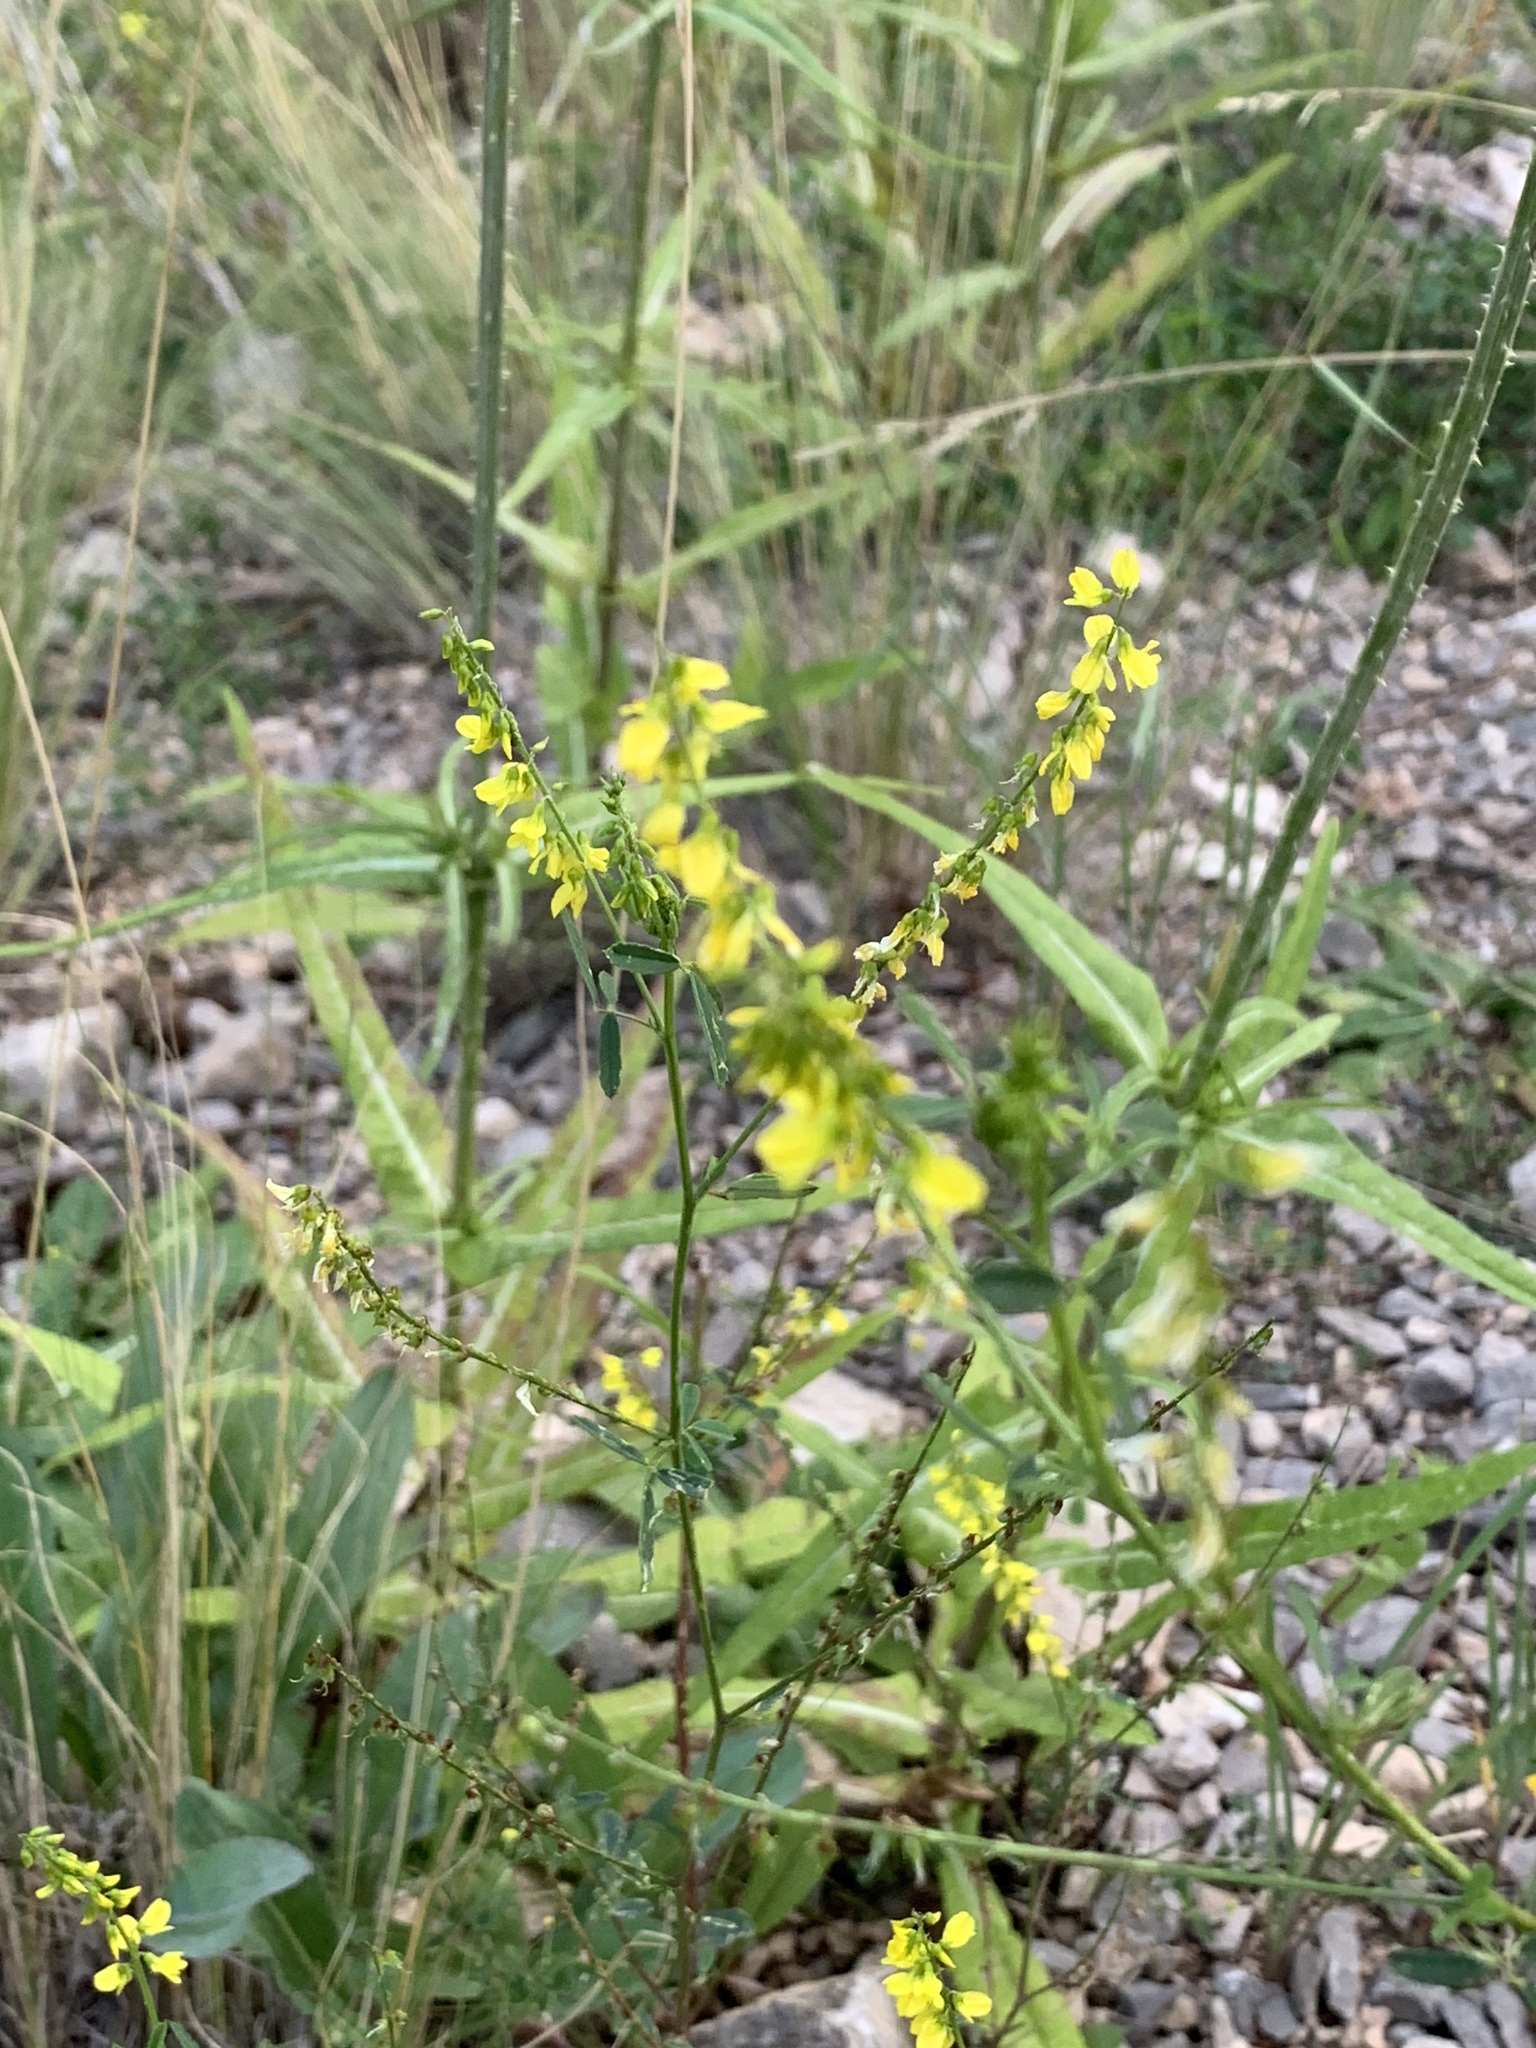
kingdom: Plantae
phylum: Tracheophyta
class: Magnoliopsida
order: Fabales
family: Fabaceae
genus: Melilotus
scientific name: Melilotus officinalis
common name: Sweetclover
